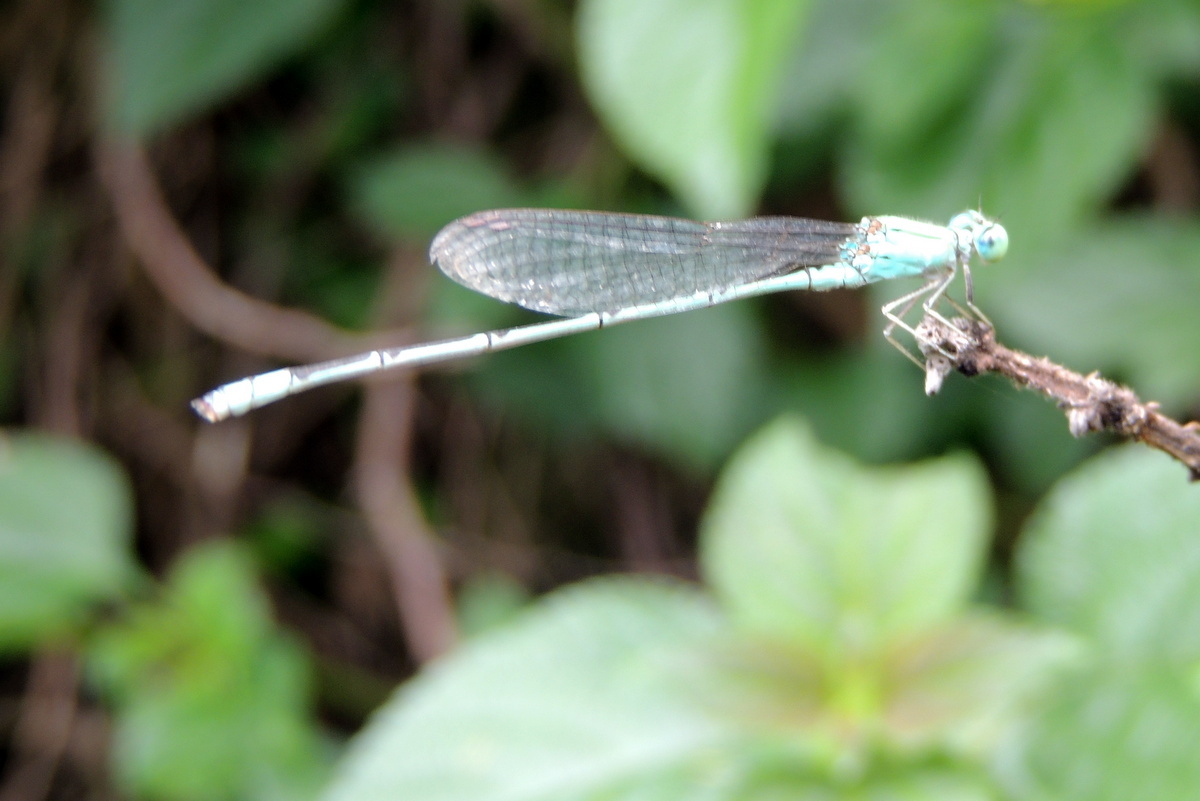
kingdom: Animalia
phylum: Arthropoda
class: Insecta
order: Odonata
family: Coenagrionidae
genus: Pseudagrion
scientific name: Pseudagrion decorum
